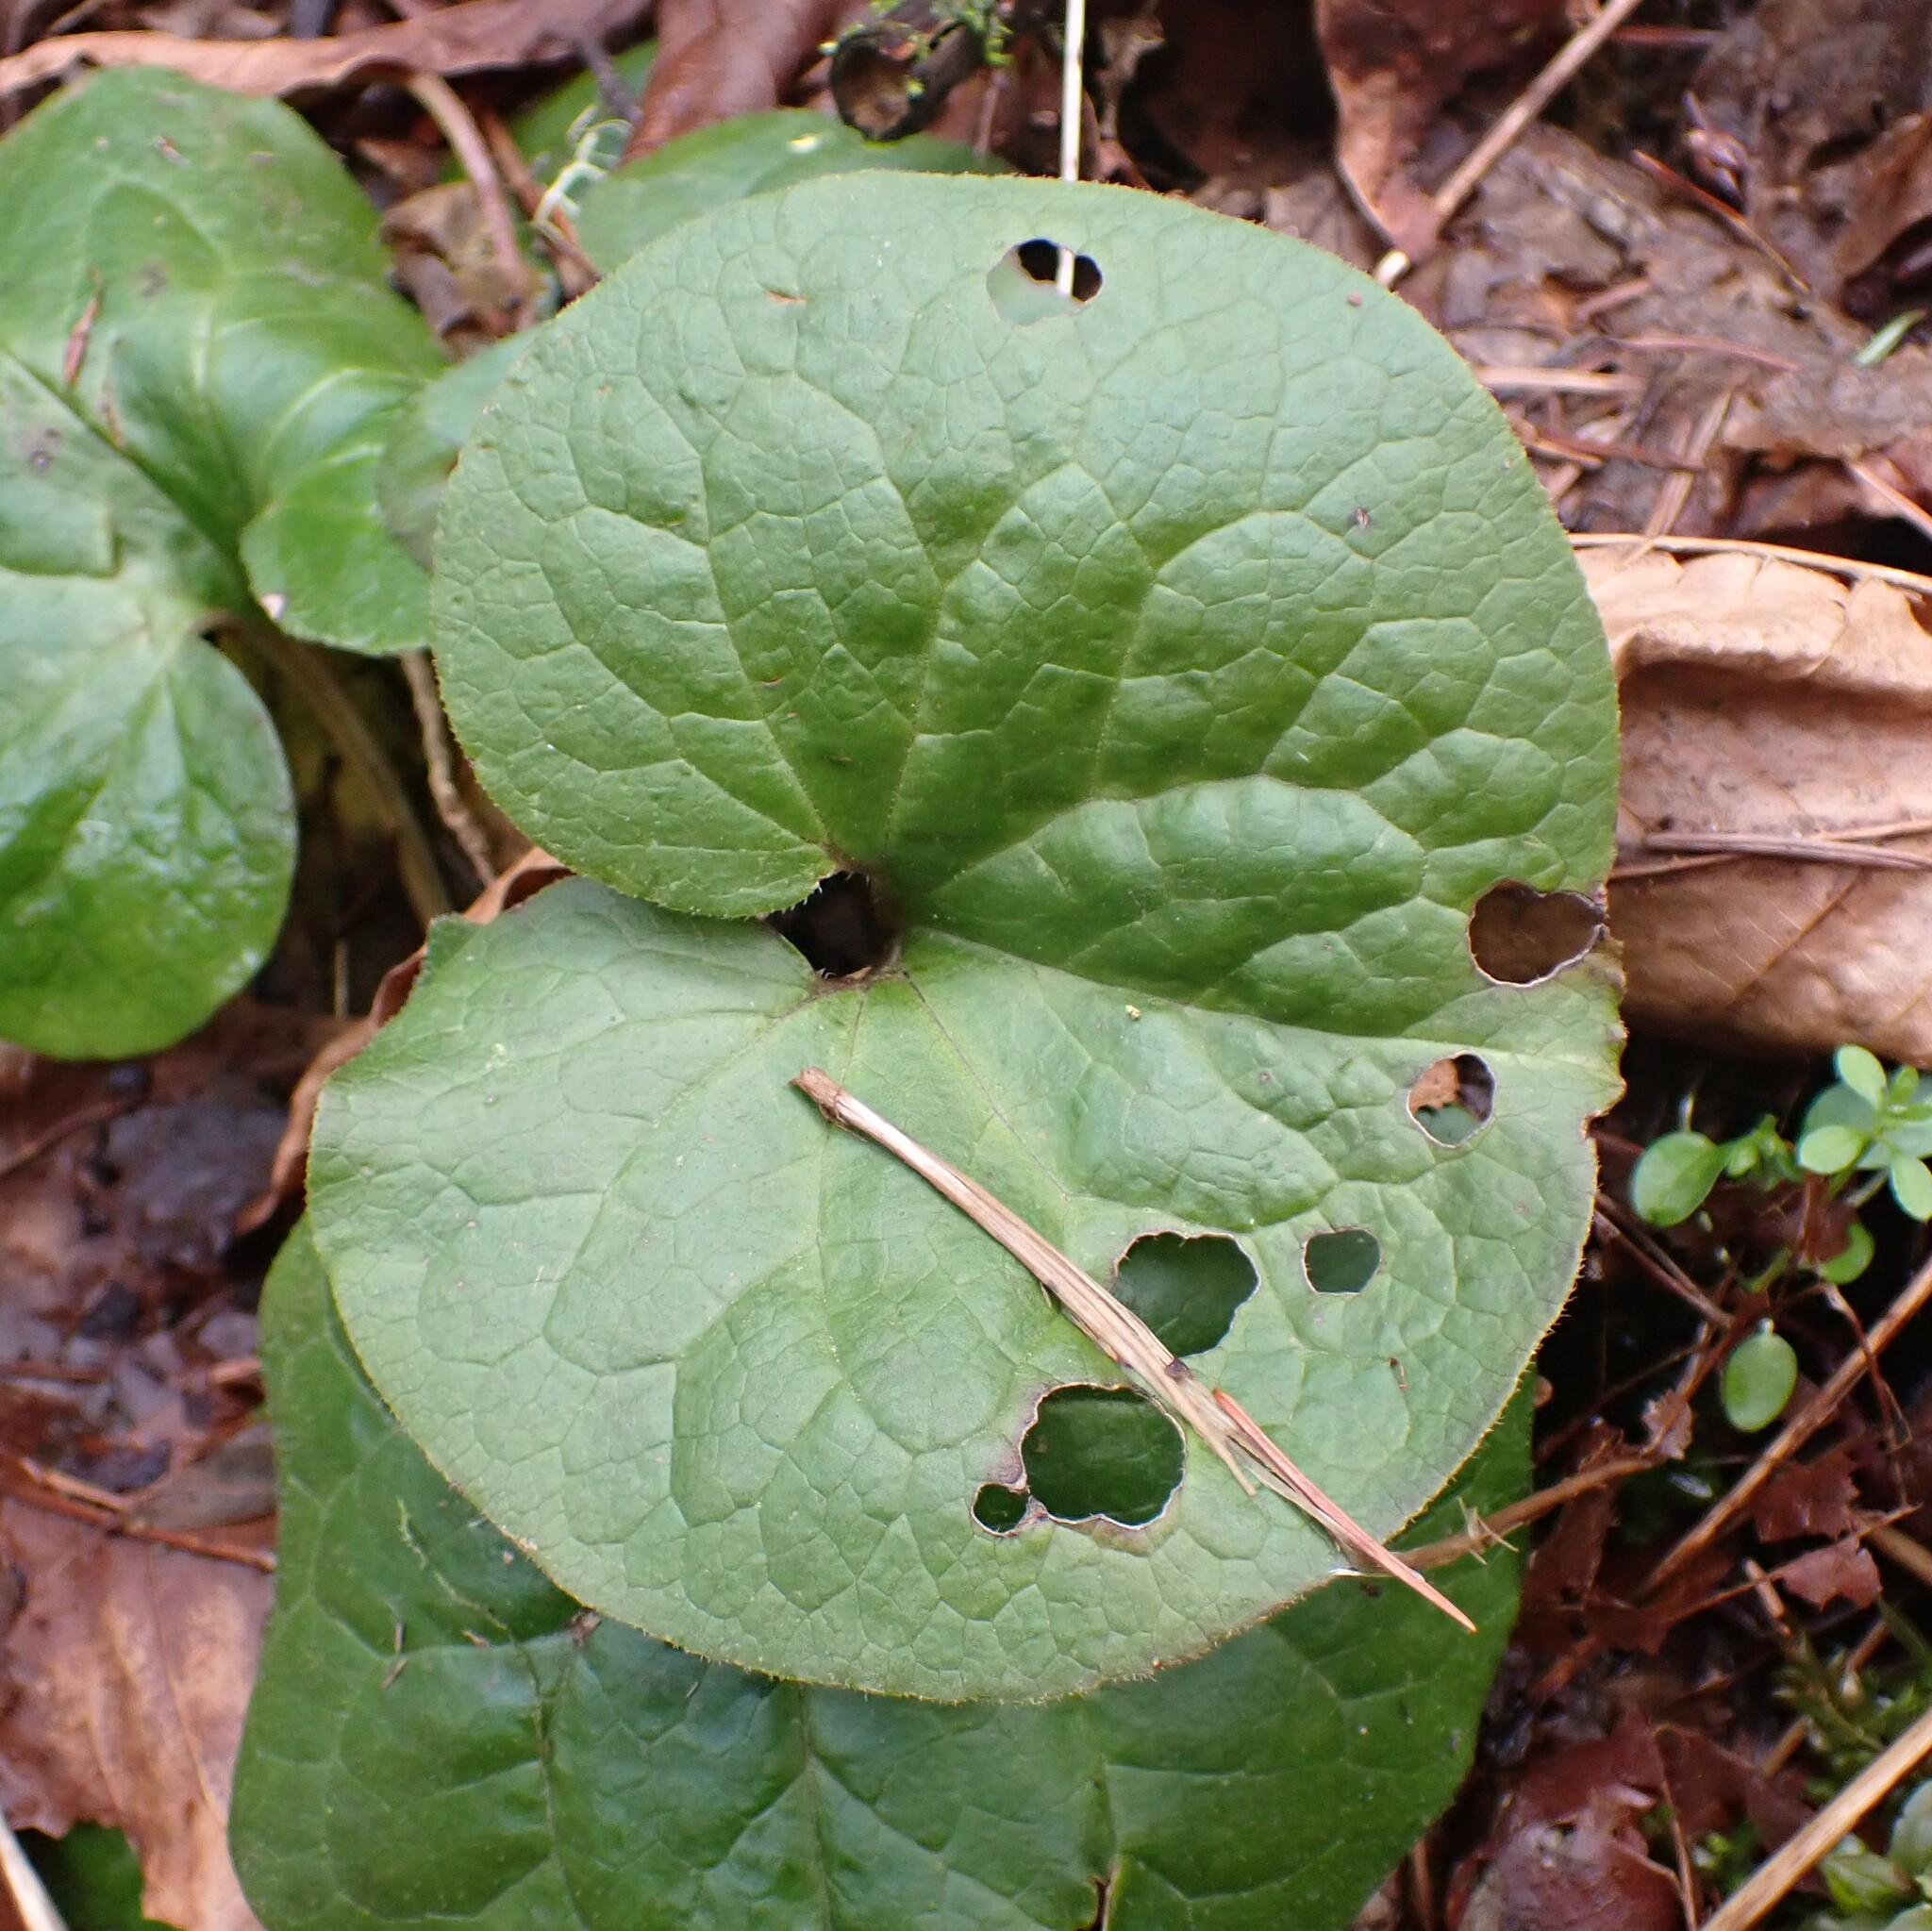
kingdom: Plantae
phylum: Tracheophyta
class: Magnoliopsida
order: Piperales
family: Aristolochiaceae
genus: Asarum
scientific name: Asarum caudatum
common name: Wild ginger
